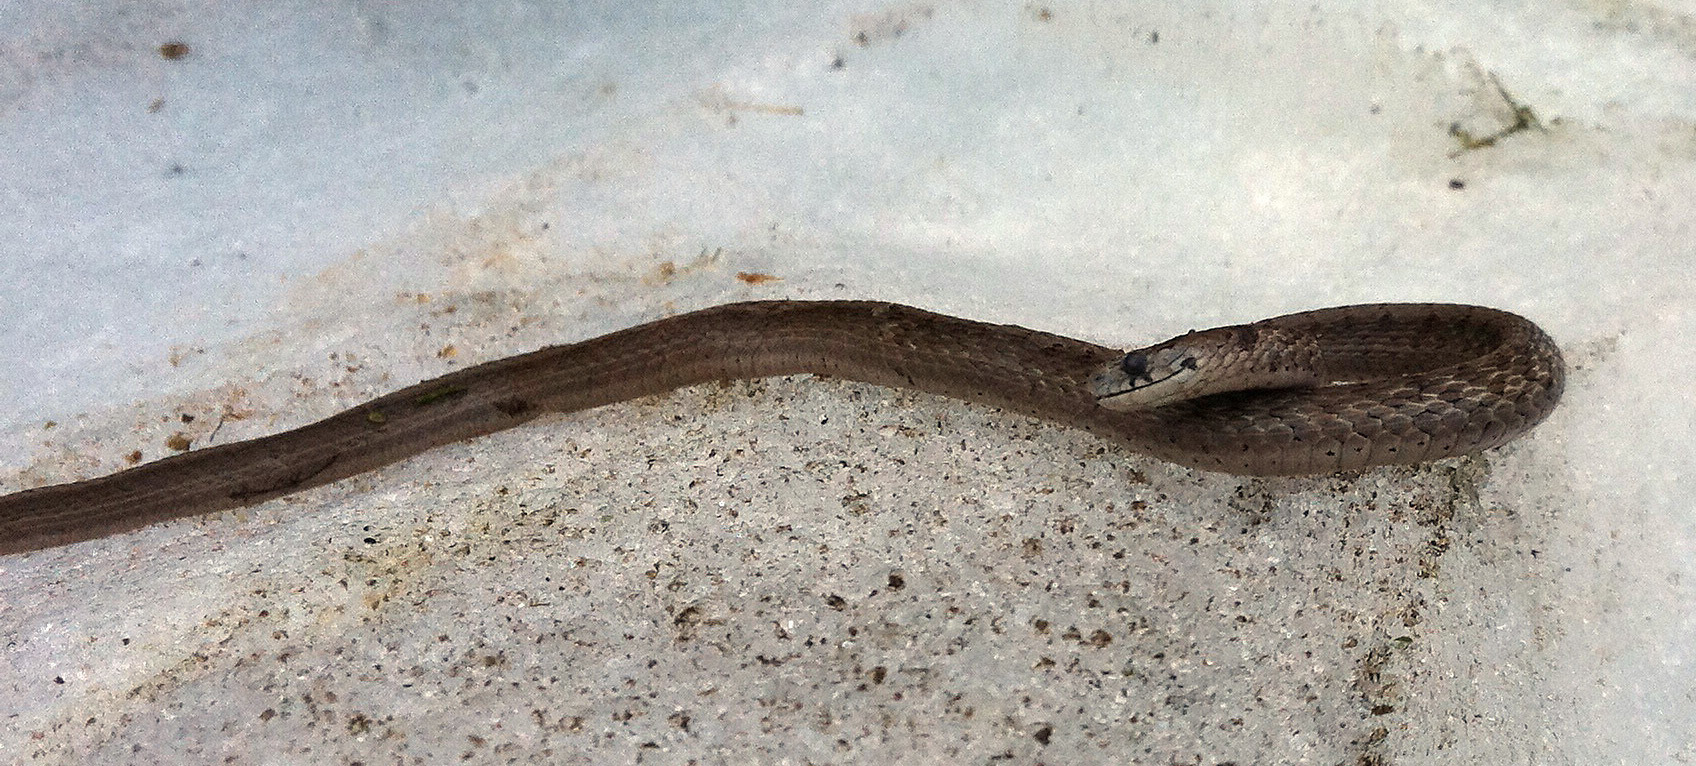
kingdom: Animalia
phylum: Chordata
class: Squamata
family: Colubridae
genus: Storeria
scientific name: Storeria dekayi
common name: (dekay’s) brown snake
